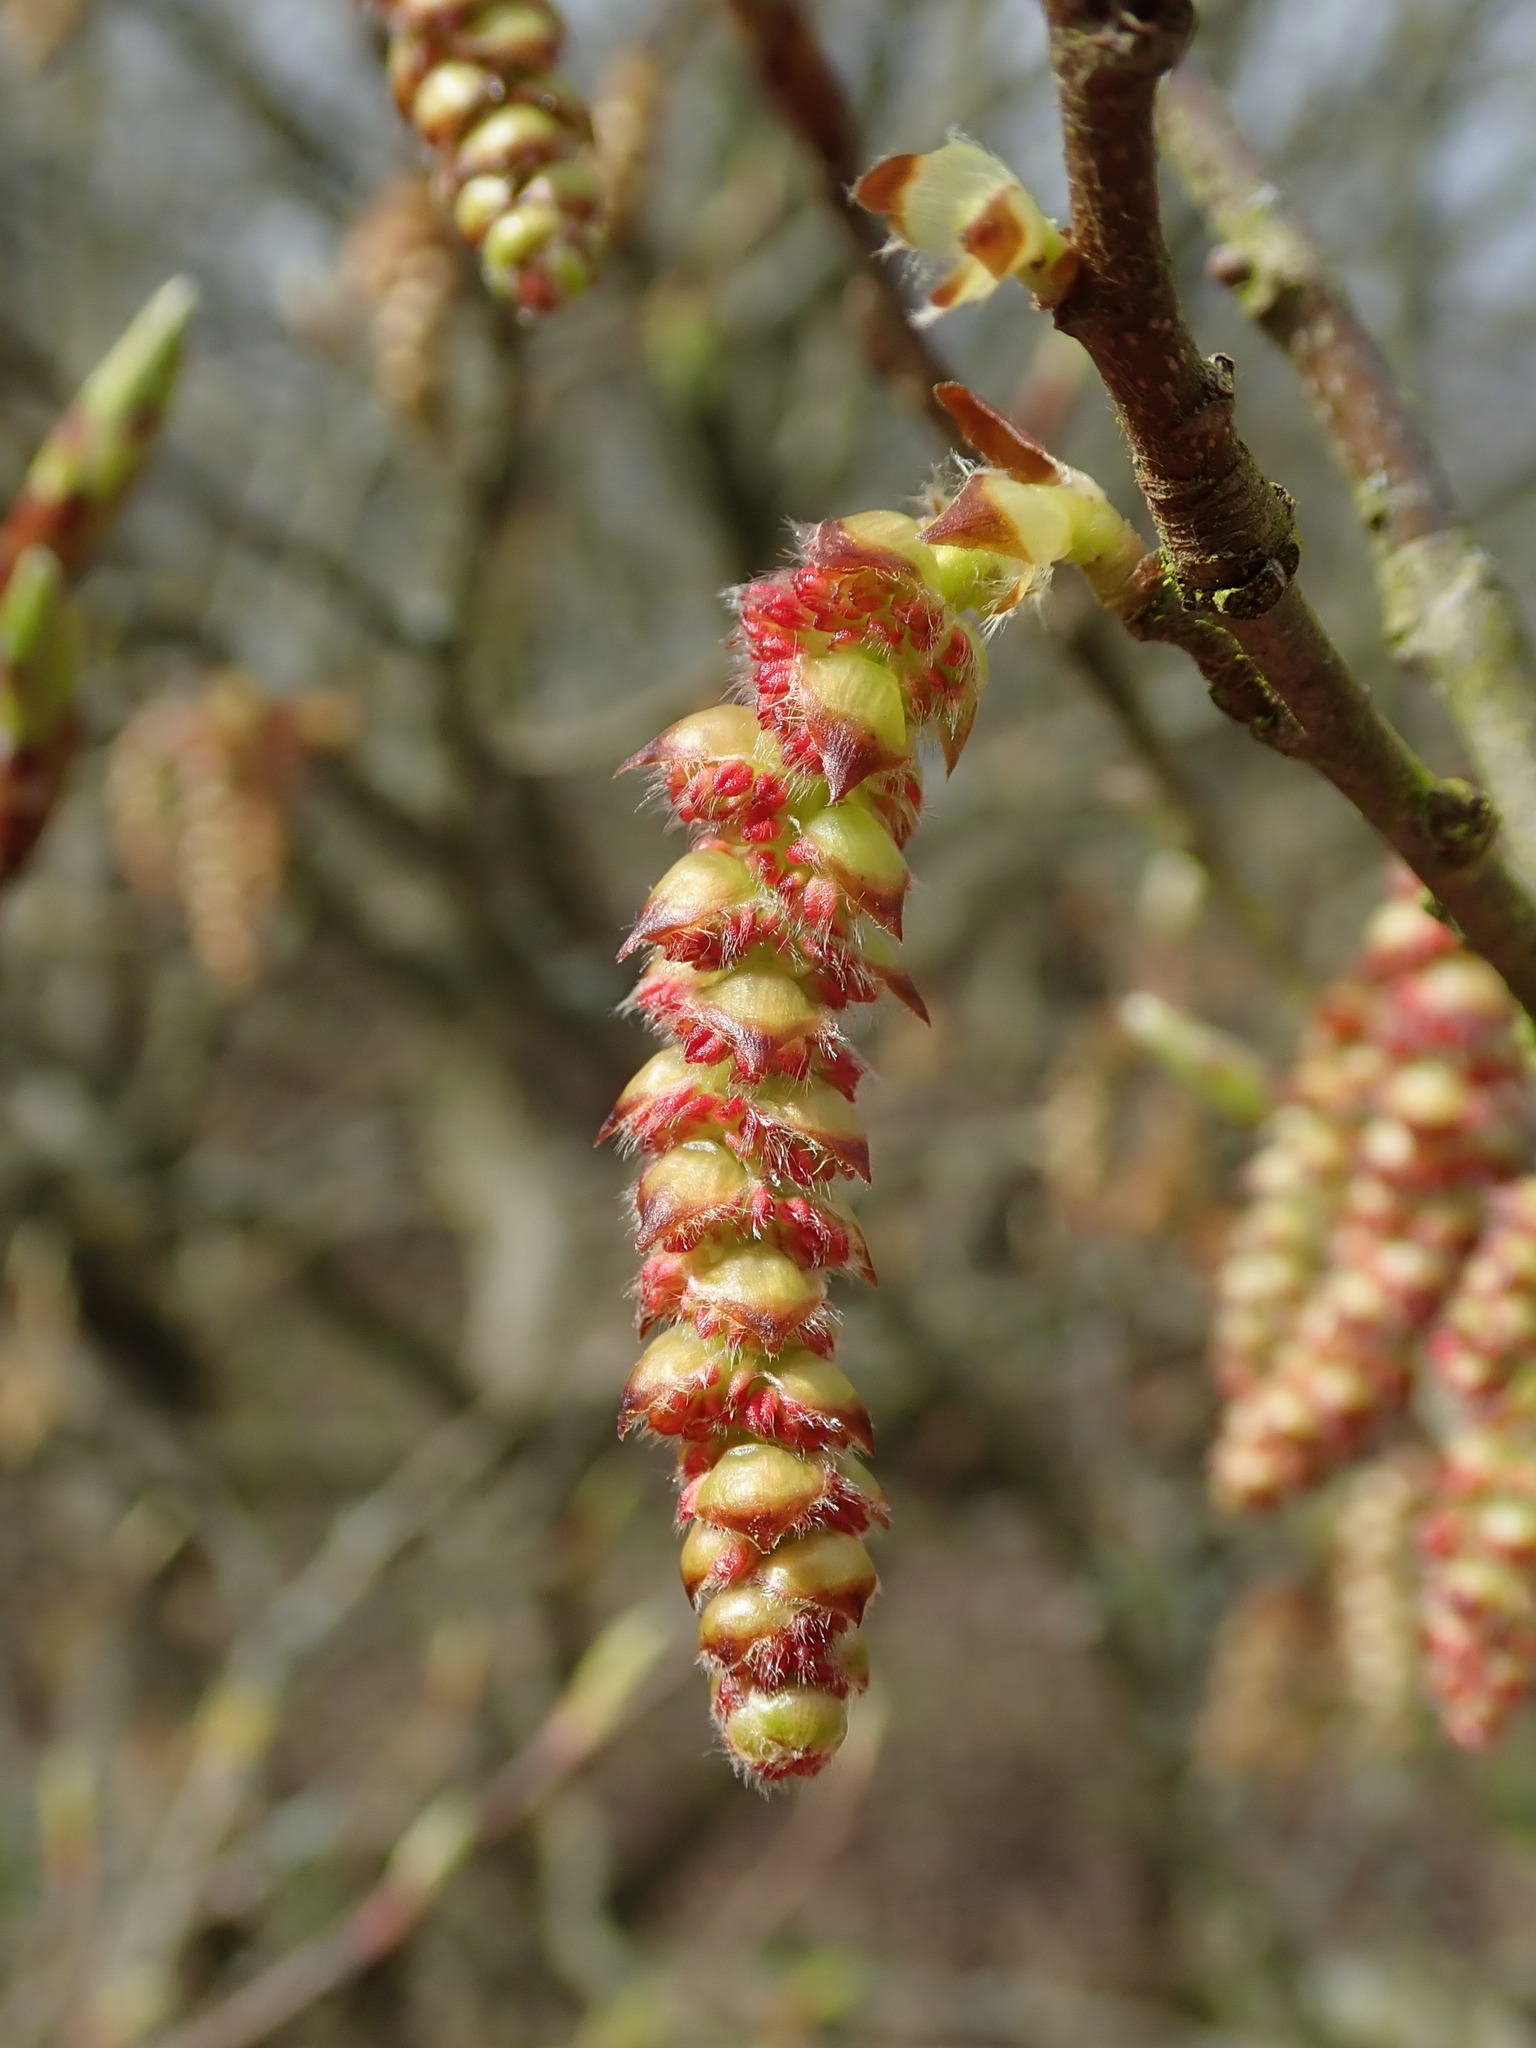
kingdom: Plantae
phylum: Tracheophyta
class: Magnoliopsida
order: Fagales
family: Betulaceae
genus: Carpinus
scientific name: Carpinus betulus
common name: Hornbeam
